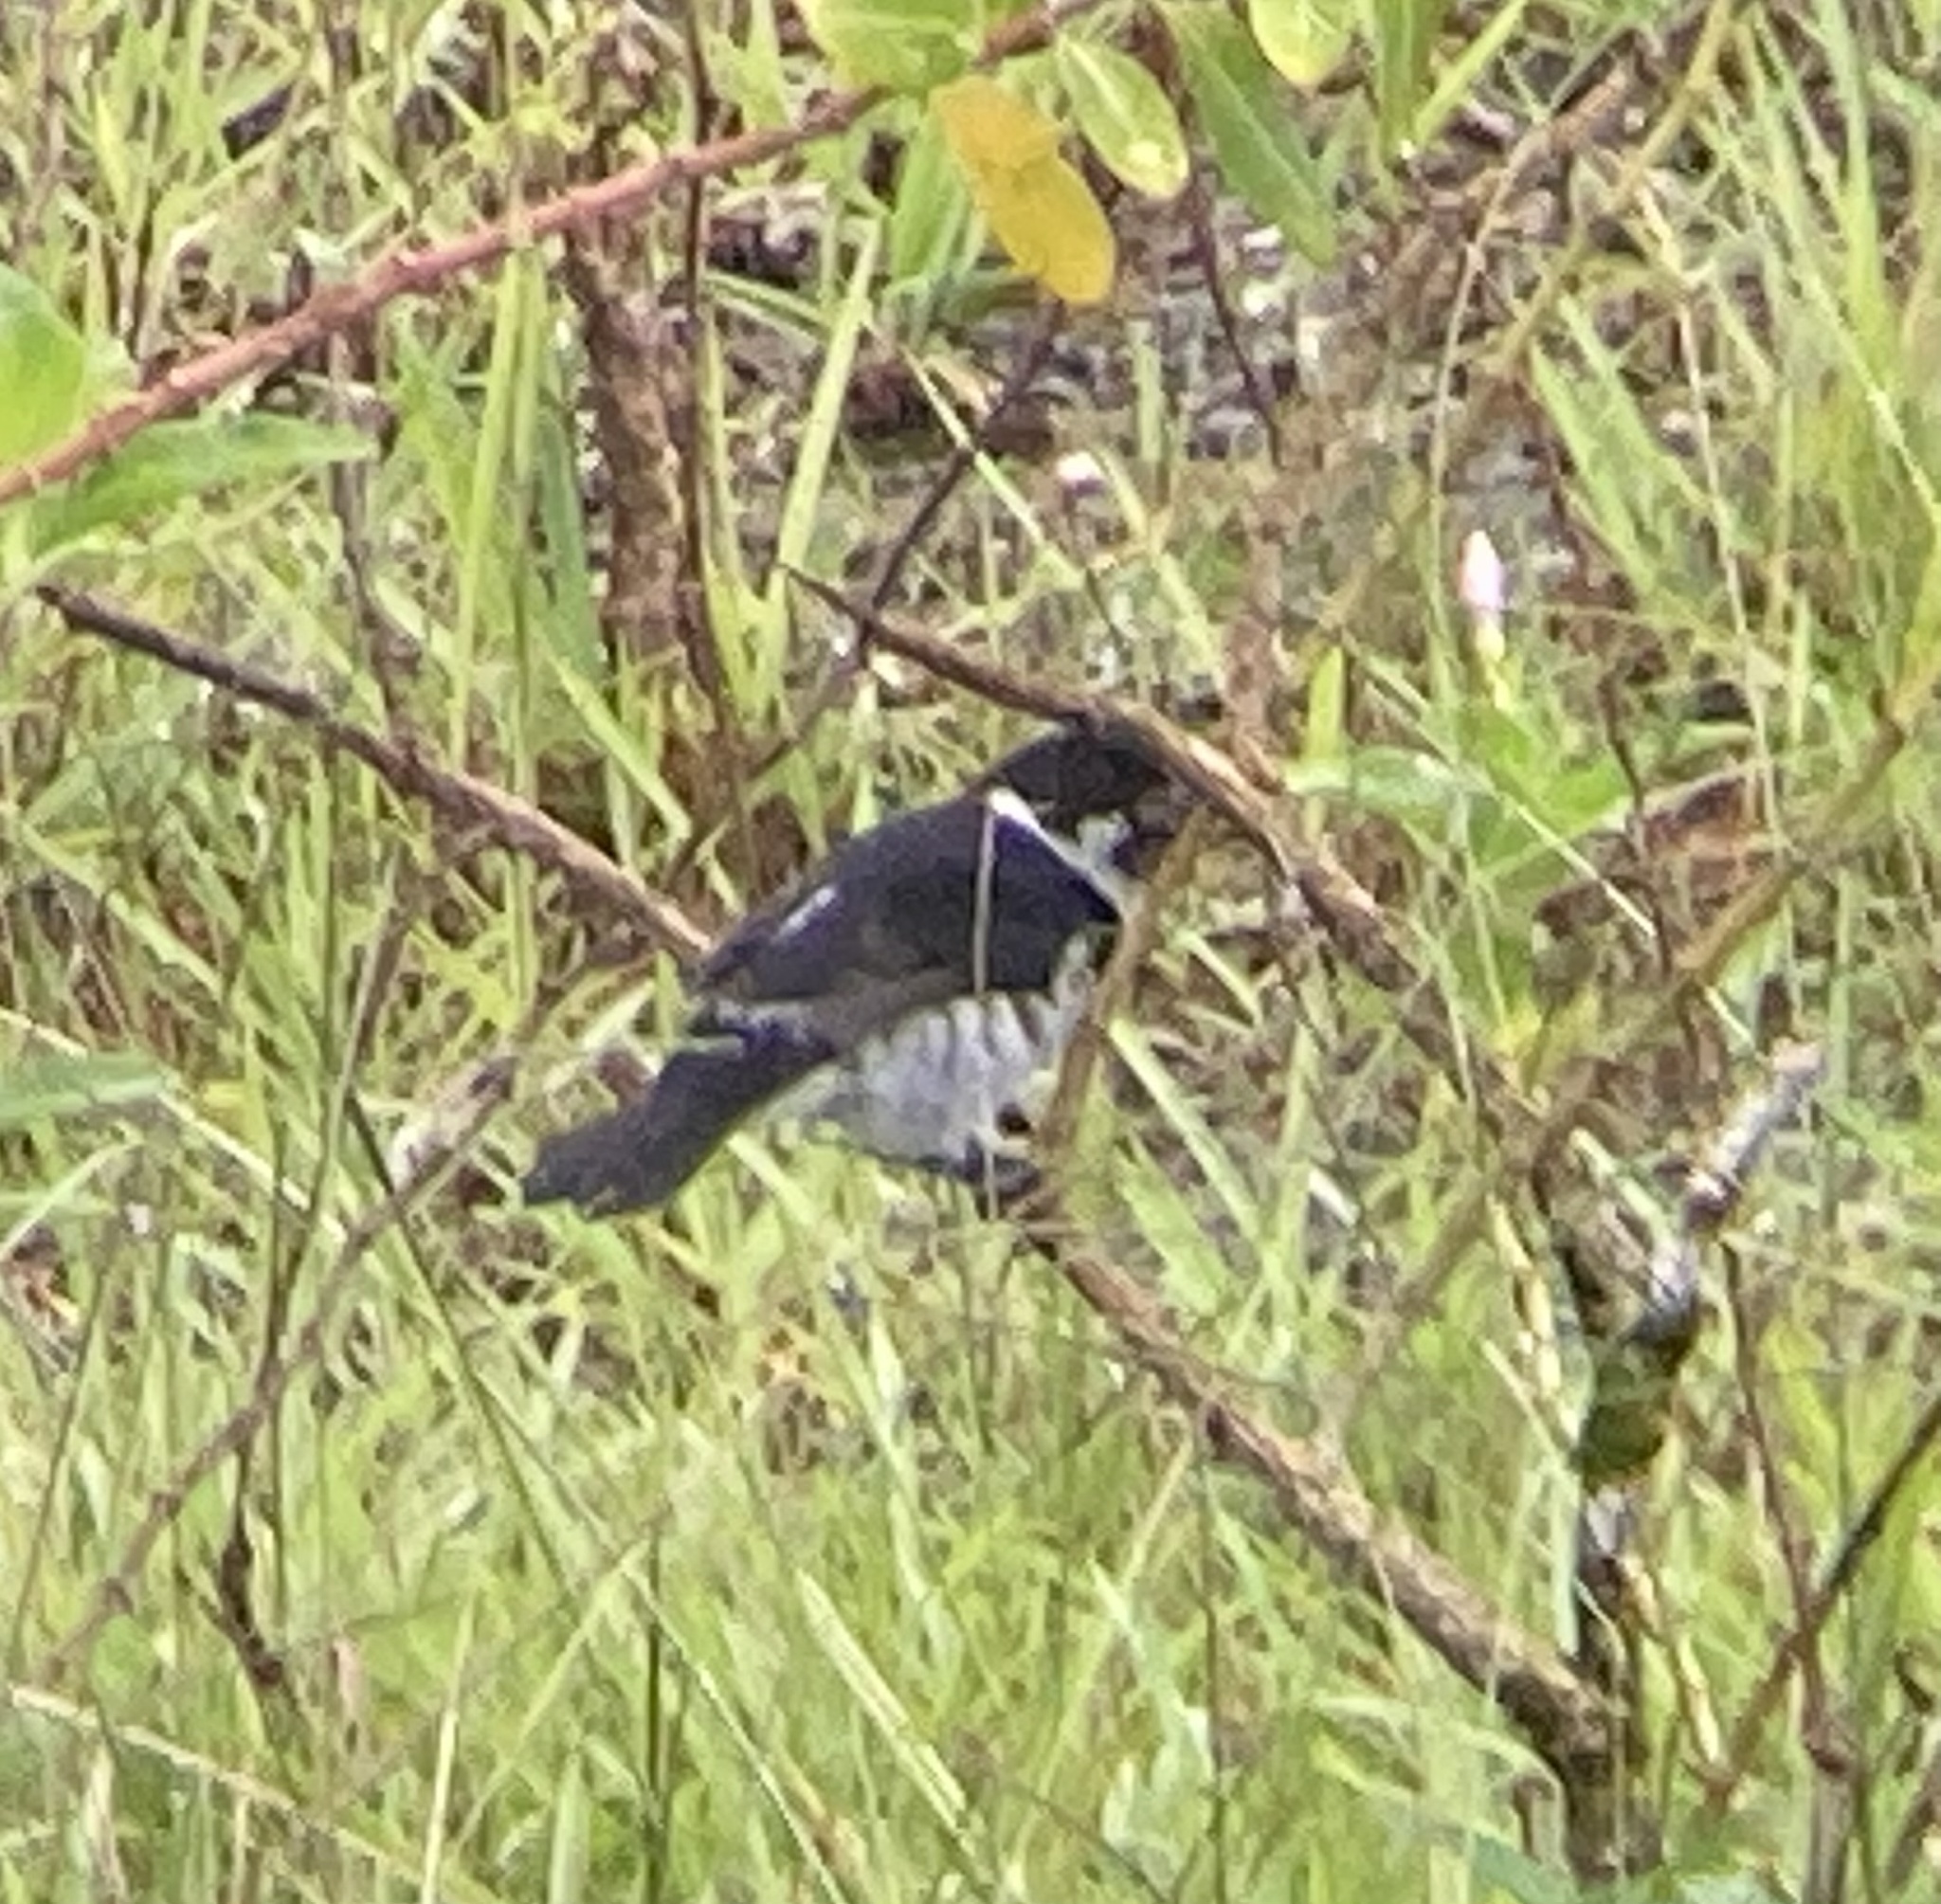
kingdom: Animalia
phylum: Chordata
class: Aves
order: Passeriformes
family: Thraupidae
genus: Sporophila
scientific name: Sporophila corvina
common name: Variable seedeater
